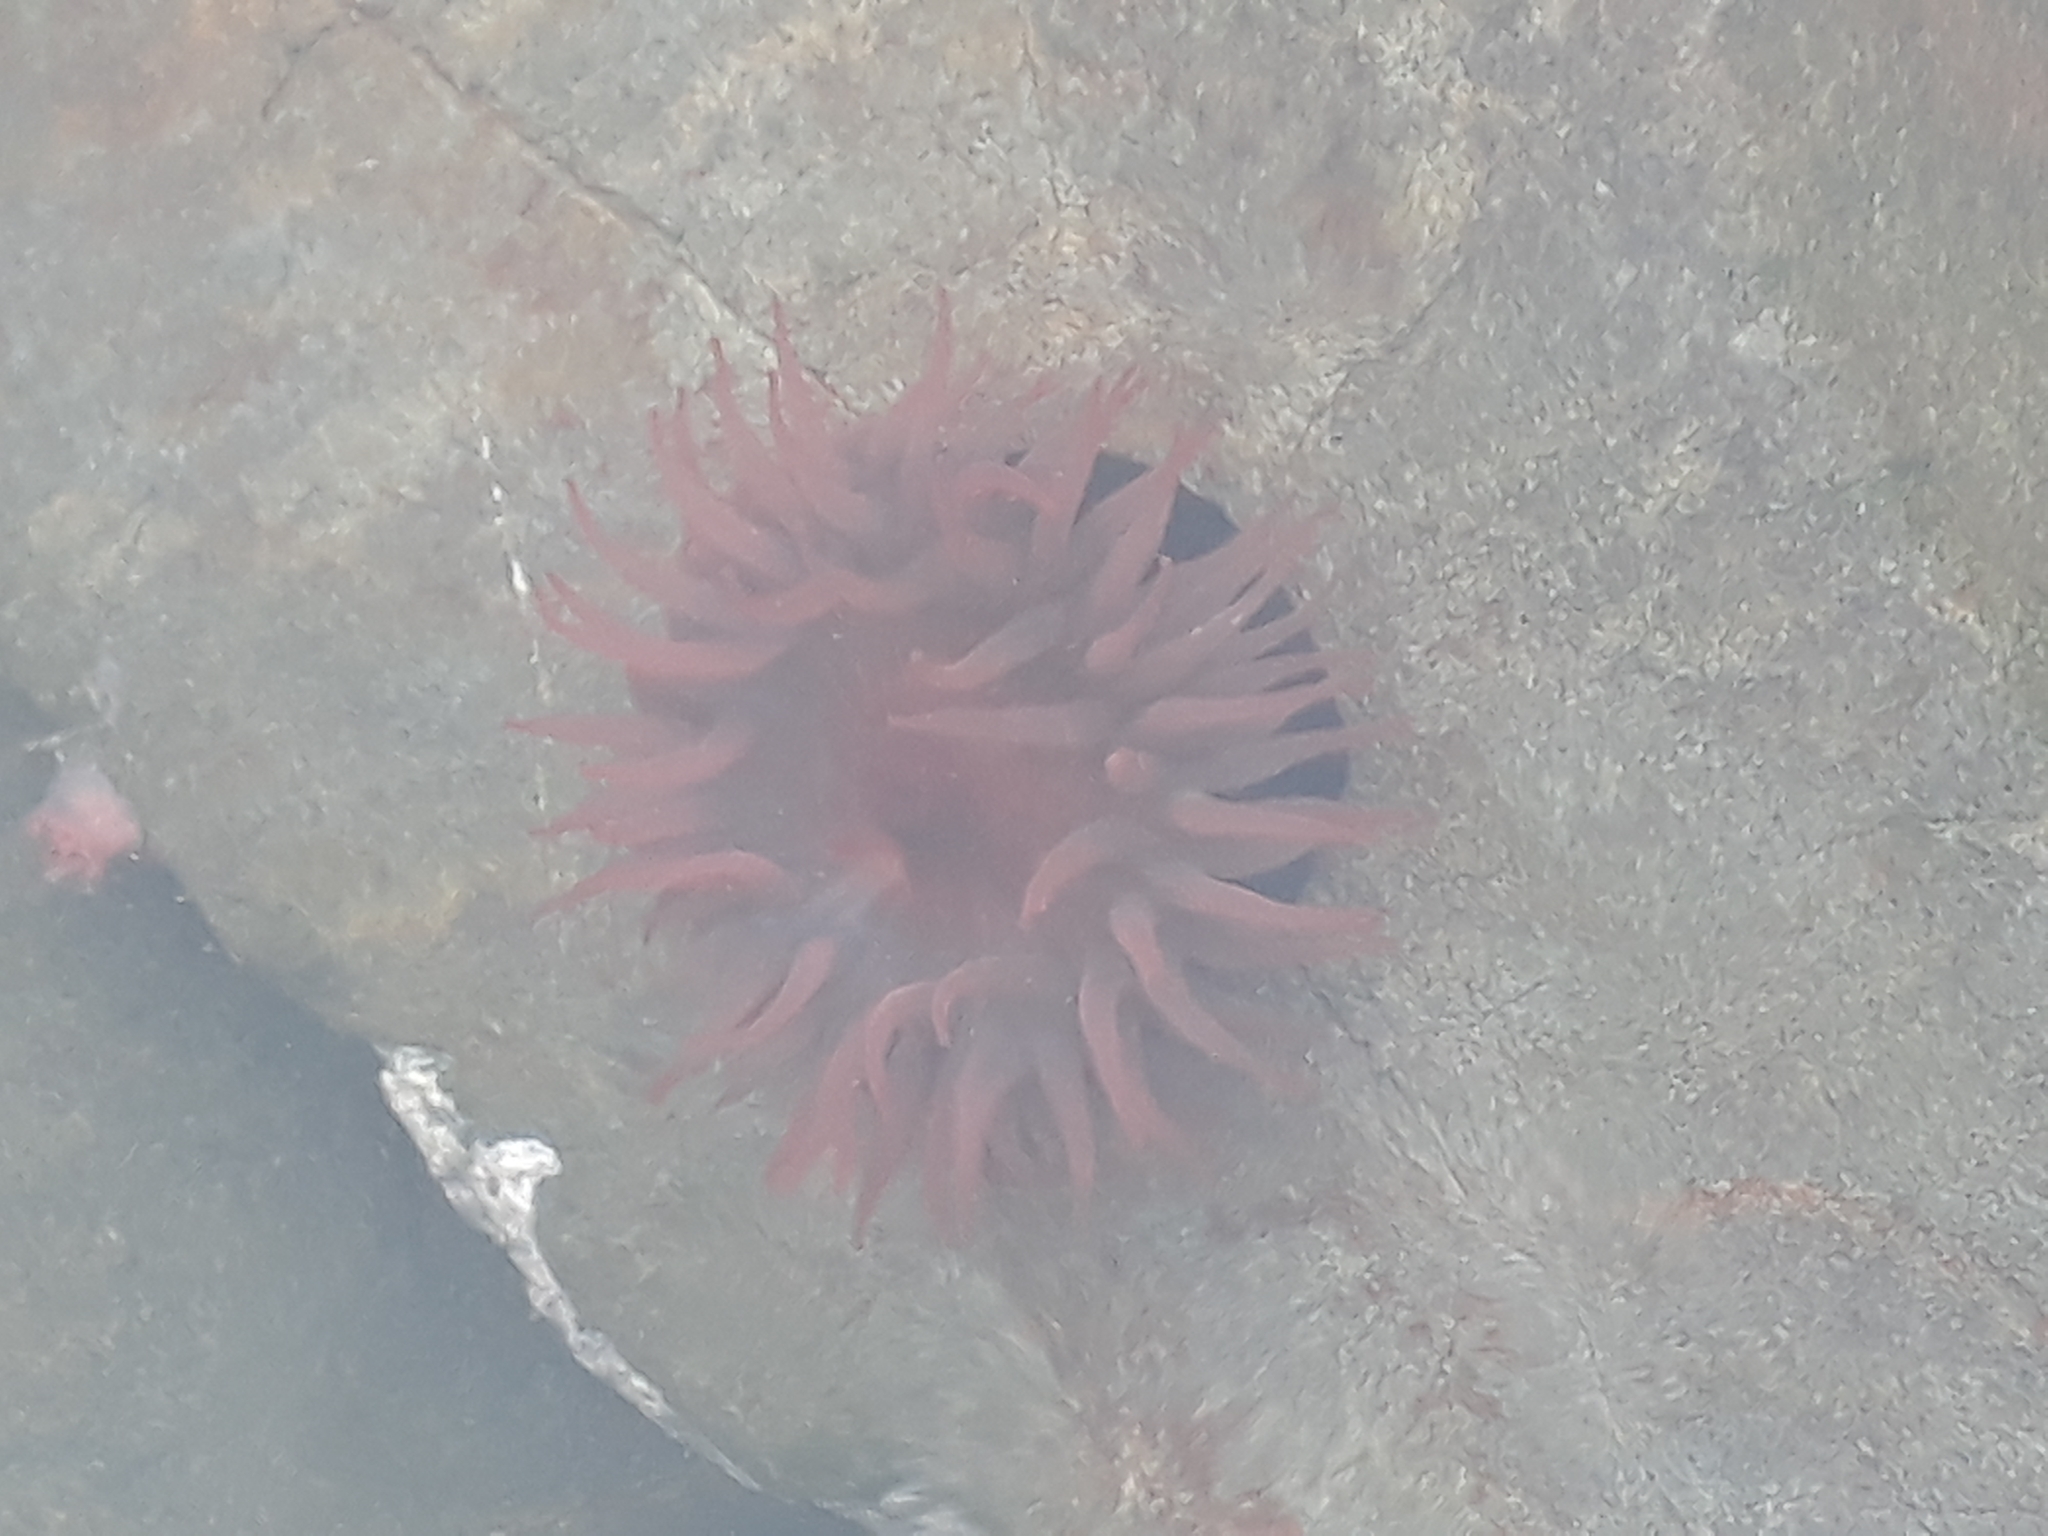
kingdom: Animalia
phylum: Cnidaria
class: Anthozoa
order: Actiniaria
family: Actiniidae
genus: Actinia
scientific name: Actinia tenebrosa
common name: Waratah anemone
